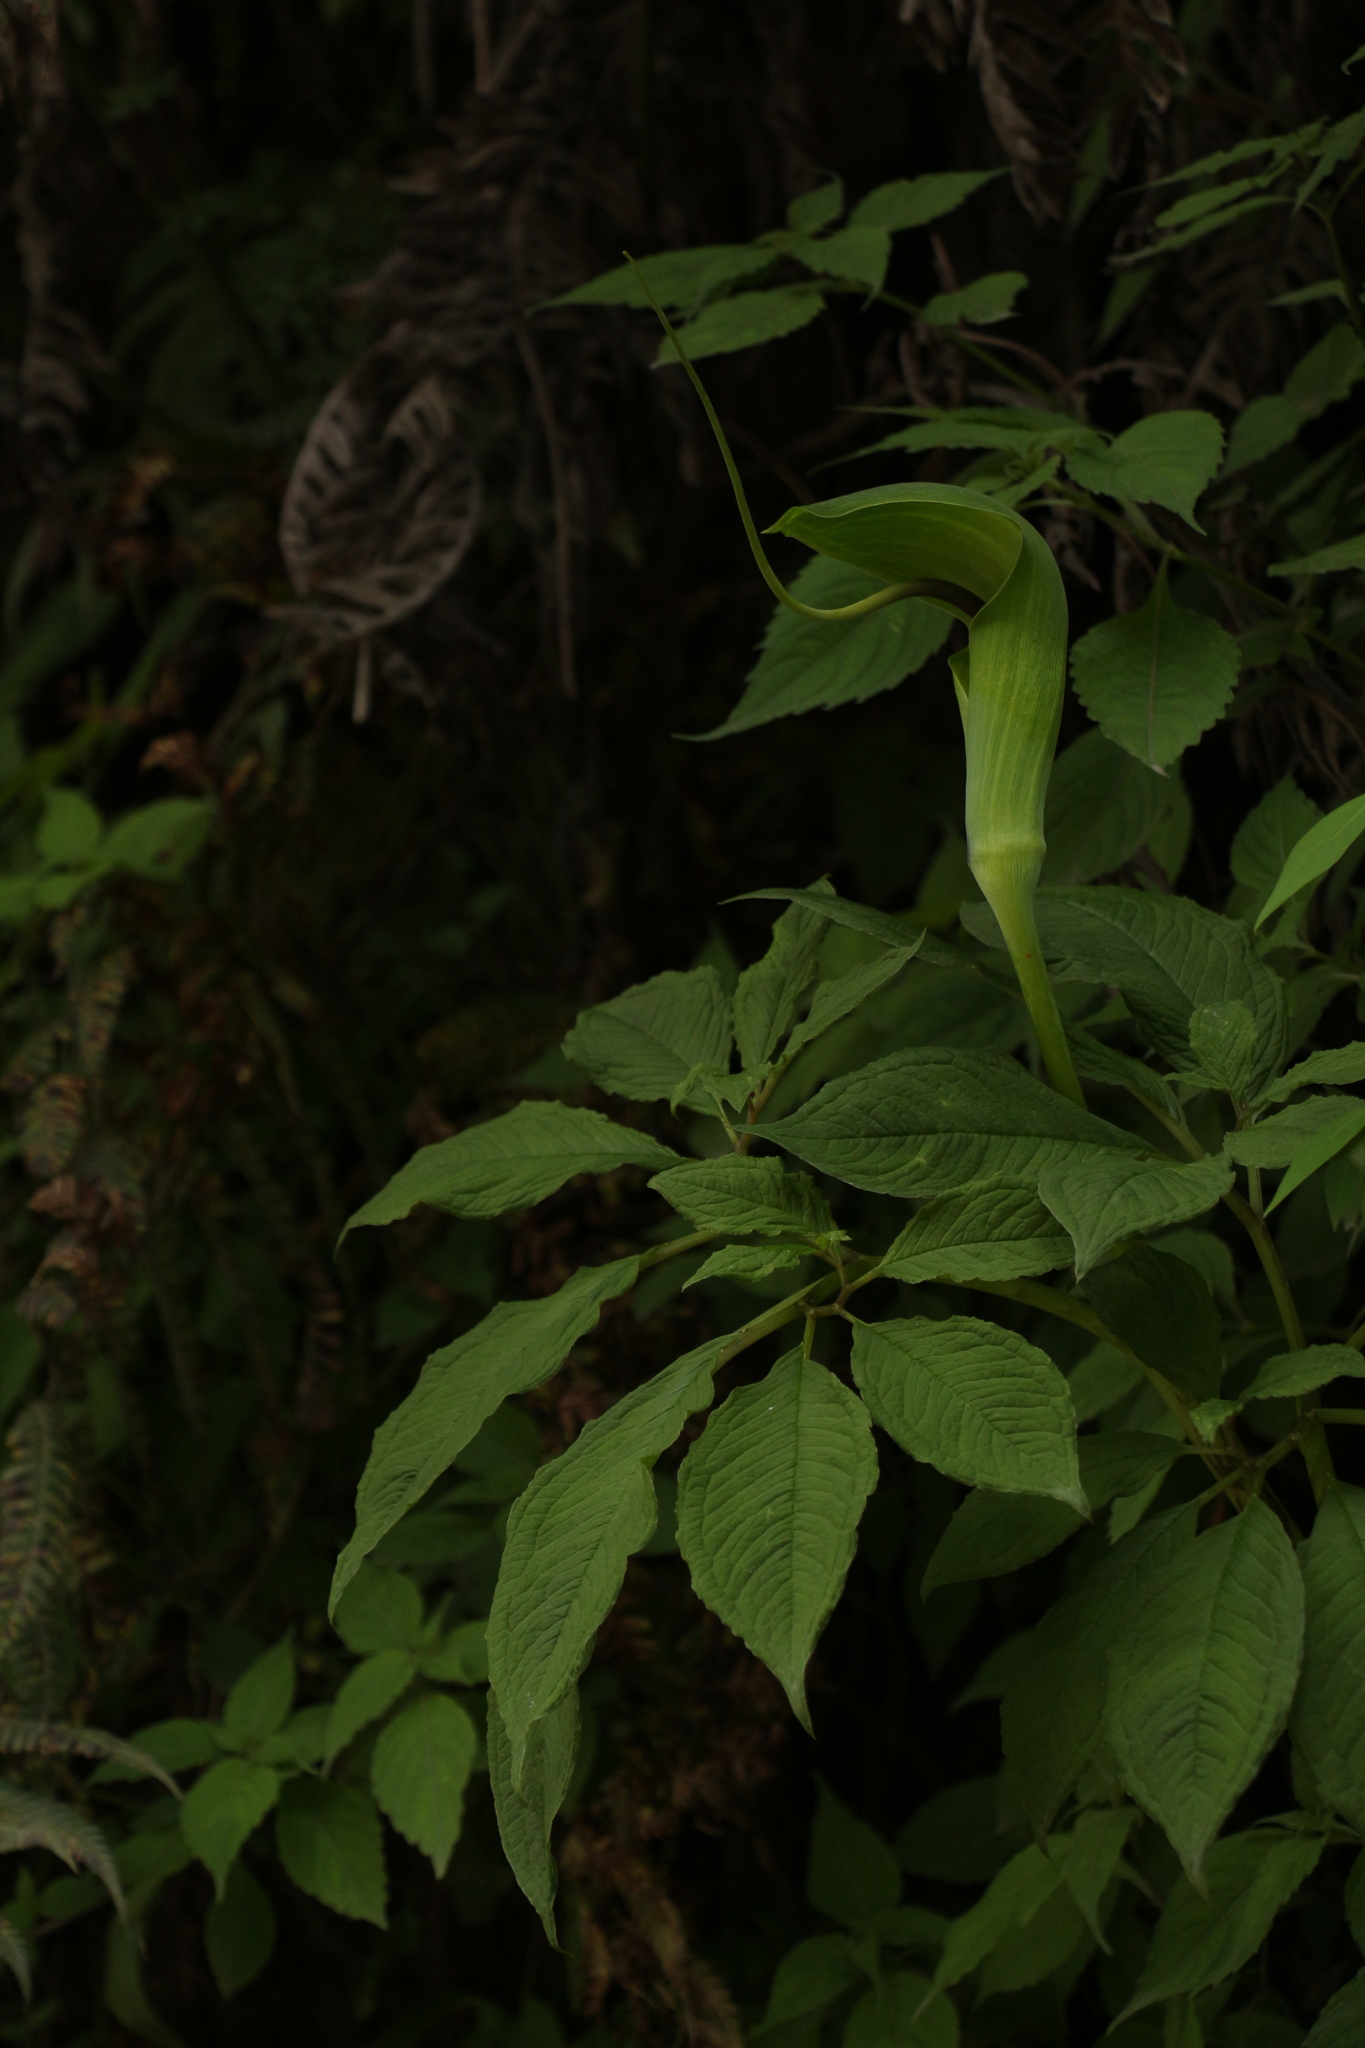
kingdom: Plantae
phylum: Tracheophyta
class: Liliopsida
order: Alismatales
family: Araceae
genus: Arisaema
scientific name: Arisaema tortuosum
